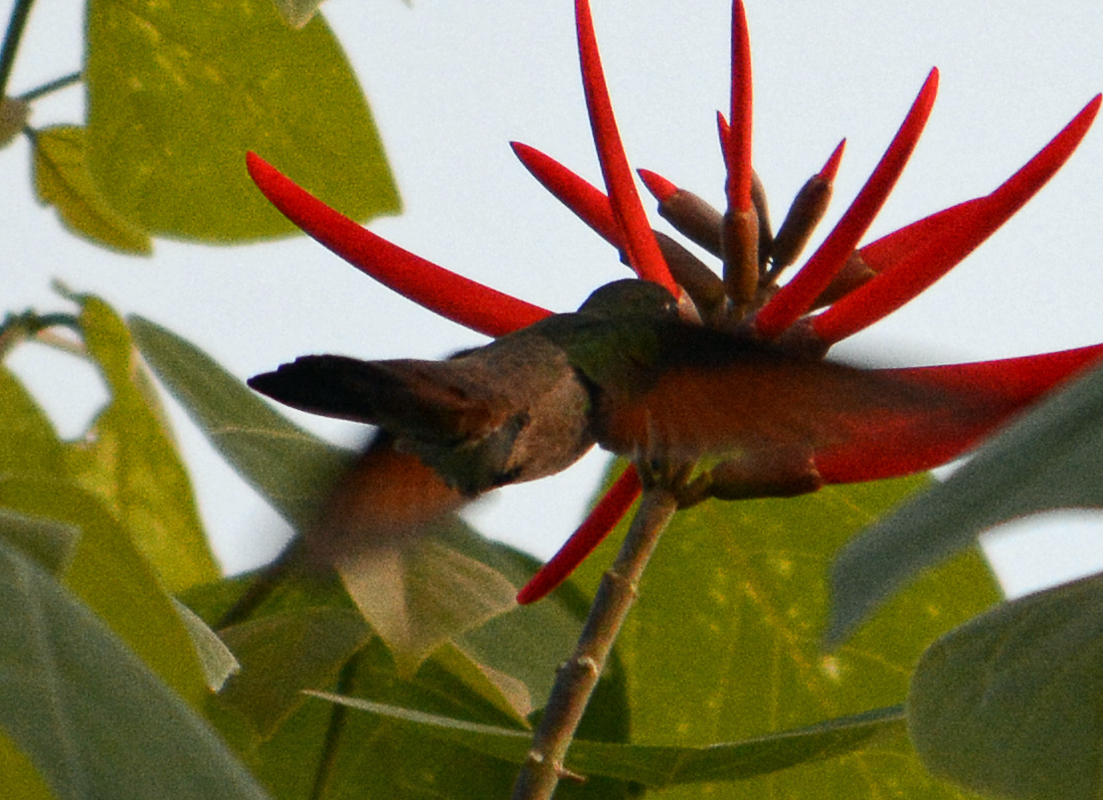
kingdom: Animalia
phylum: Chordata
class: Aves
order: Apodiformes
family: Trochilidae
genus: Saucerottia
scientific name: Saucerottia beryllina
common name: Berylline hummingbird
